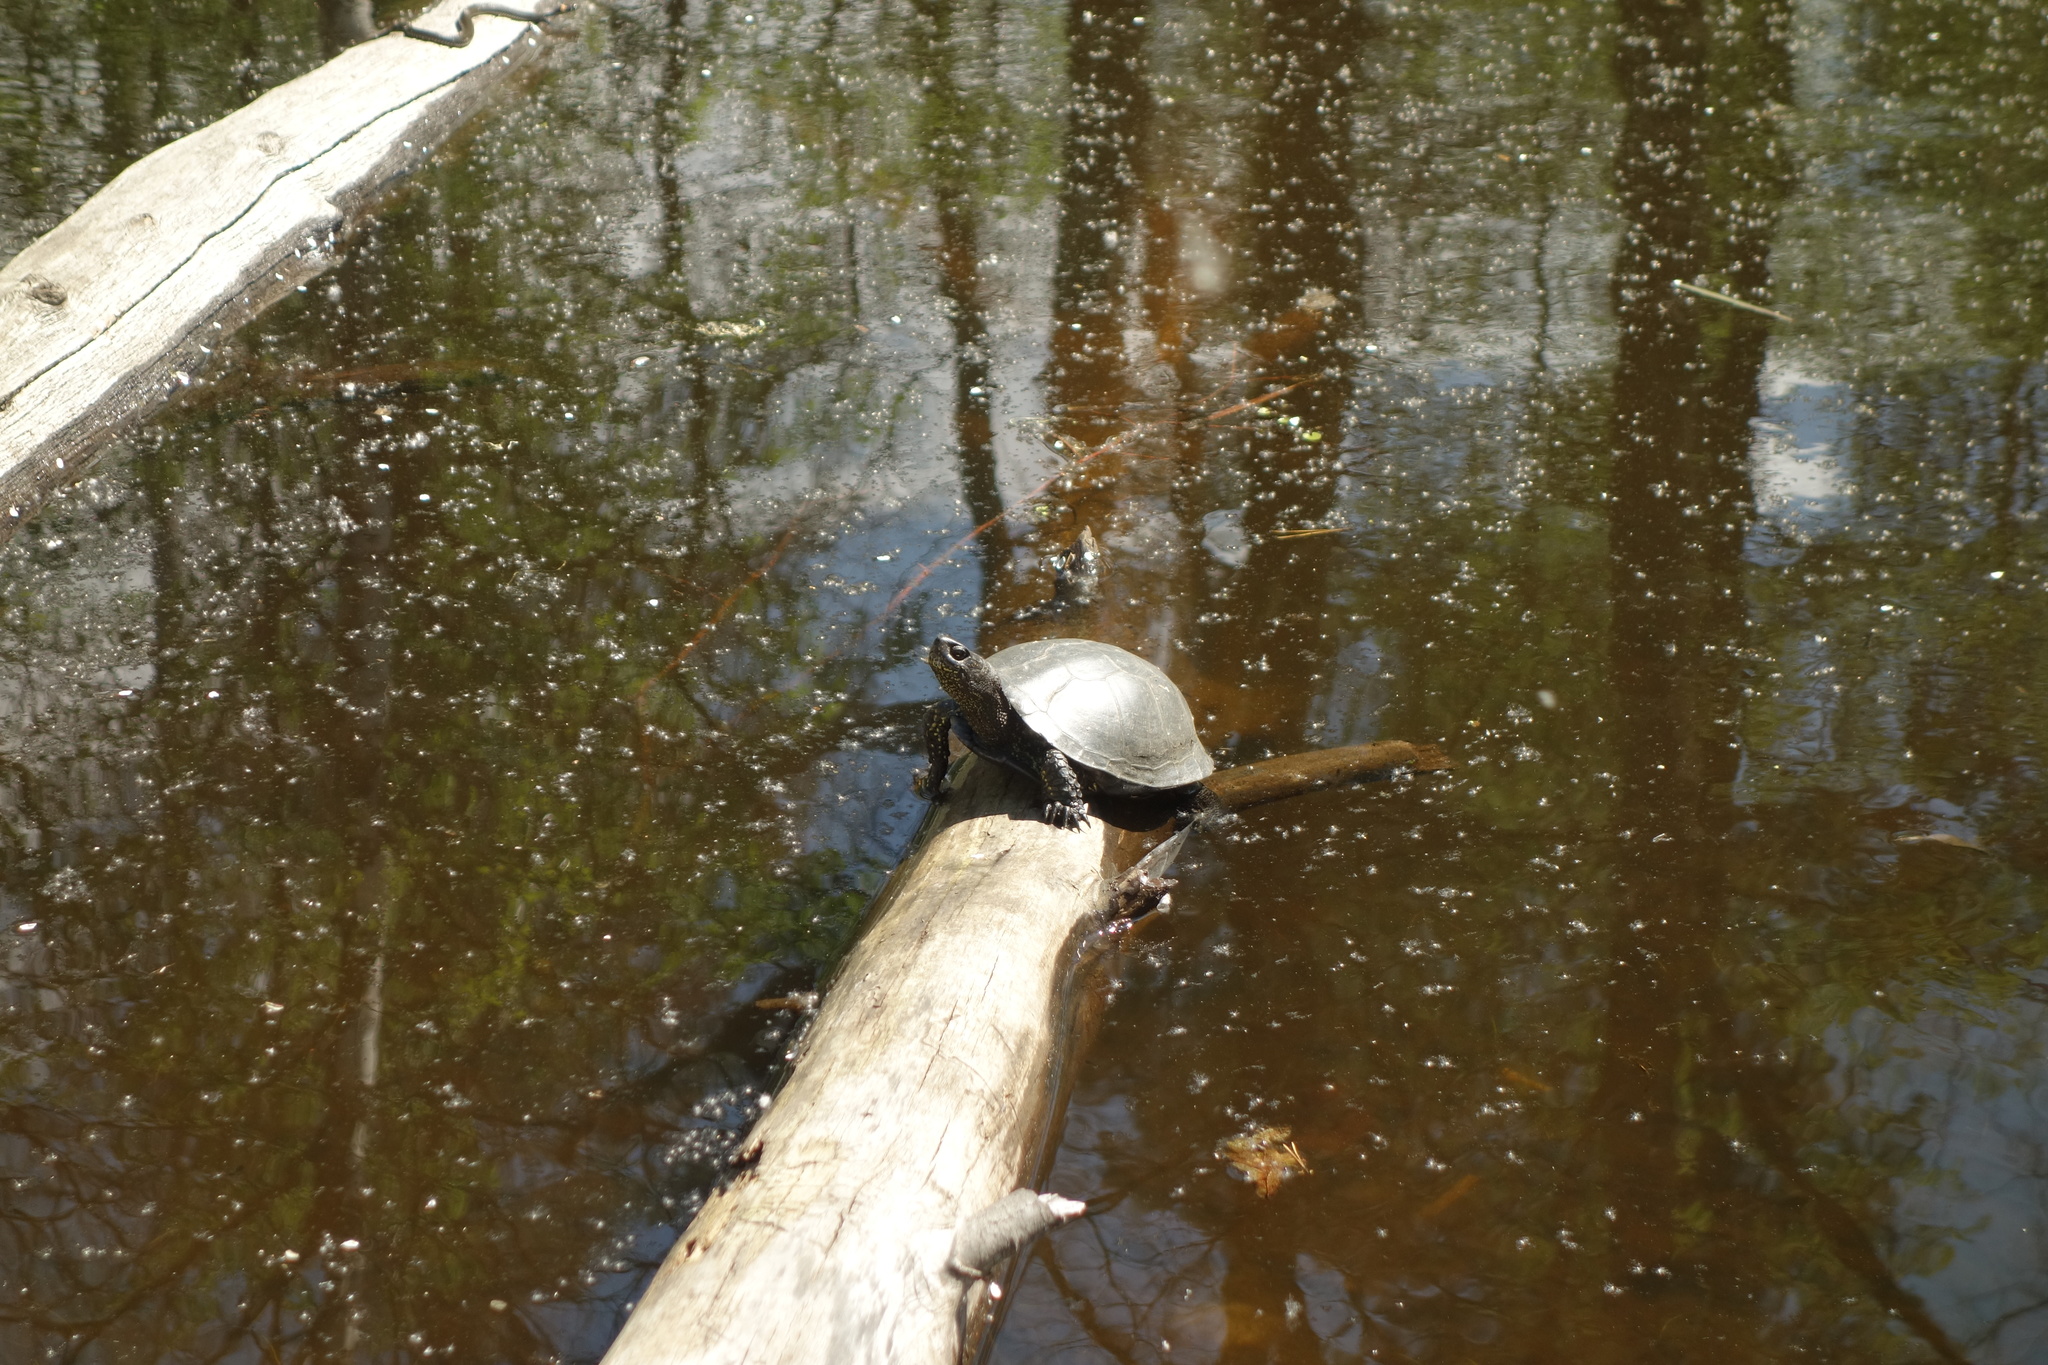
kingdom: Animalia
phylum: Chordata
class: Testudines
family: Emydidae
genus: Emys
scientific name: Emys orbicularis
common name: European pond turtle
